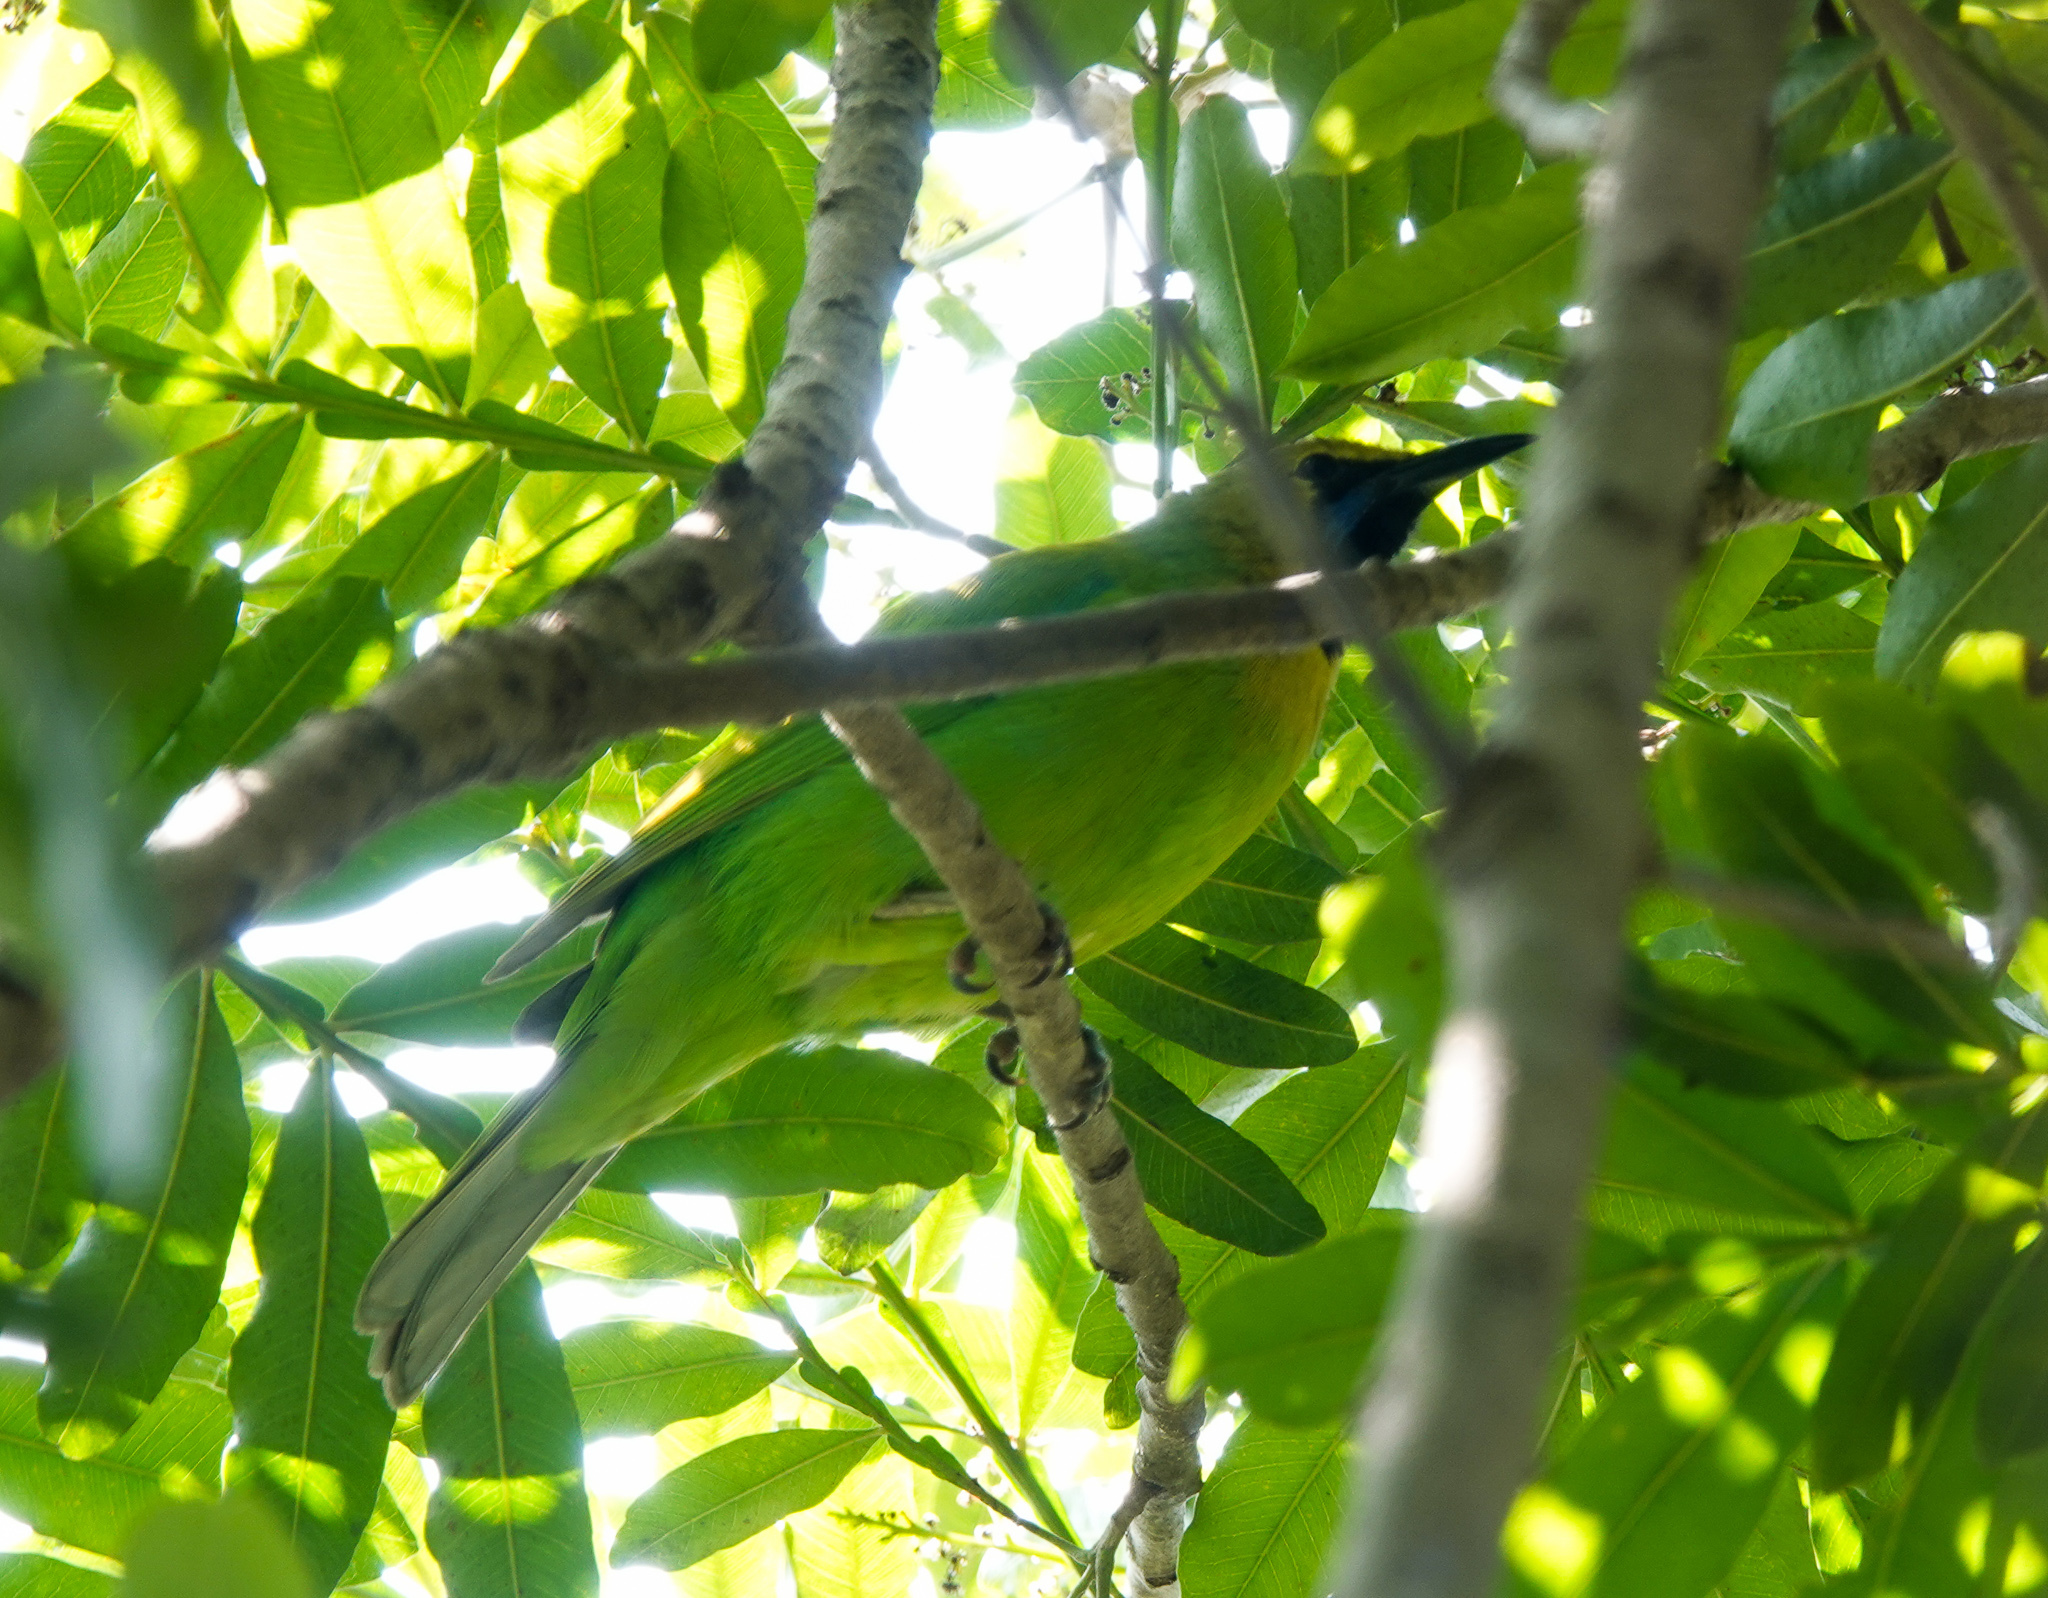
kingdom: Animalia
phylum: Chordata
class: Aves
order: Passeriformes
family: Chloropseidae
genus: Chloropsis
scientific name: Chloropsis jerdoni
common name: Jerdon's leafbird
